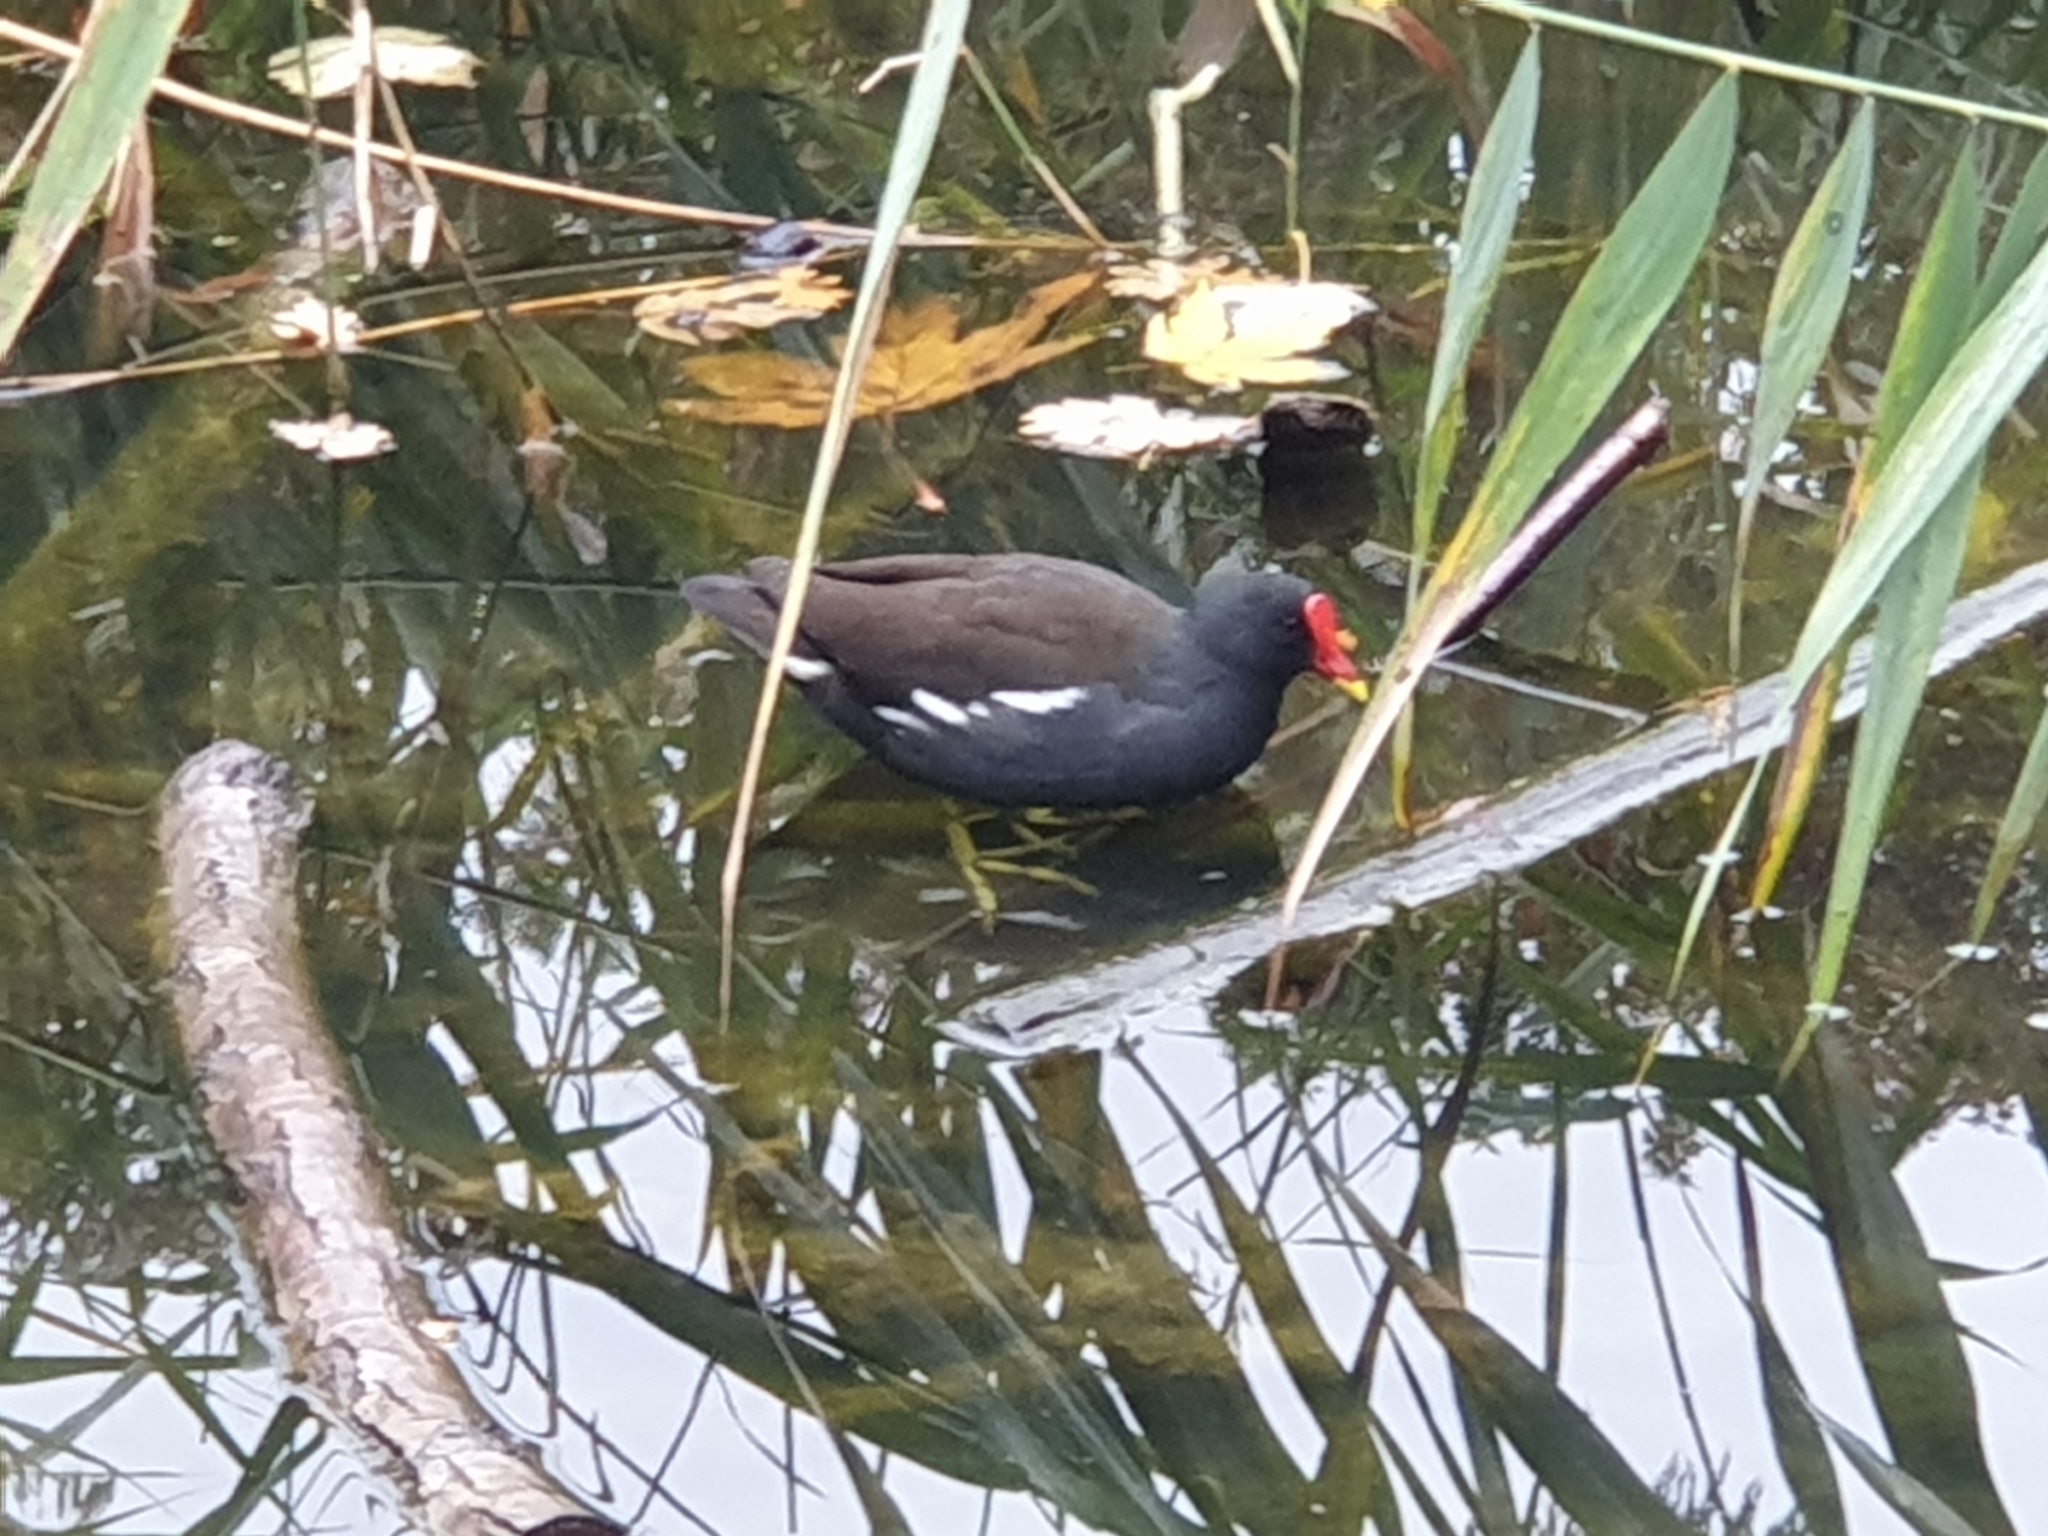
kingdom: Animalia
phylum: Chordata
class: Aves
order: Gruiformes
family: Rallidae
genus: Gallinula
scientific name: Gallinula chloropus
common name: Common moorhen
